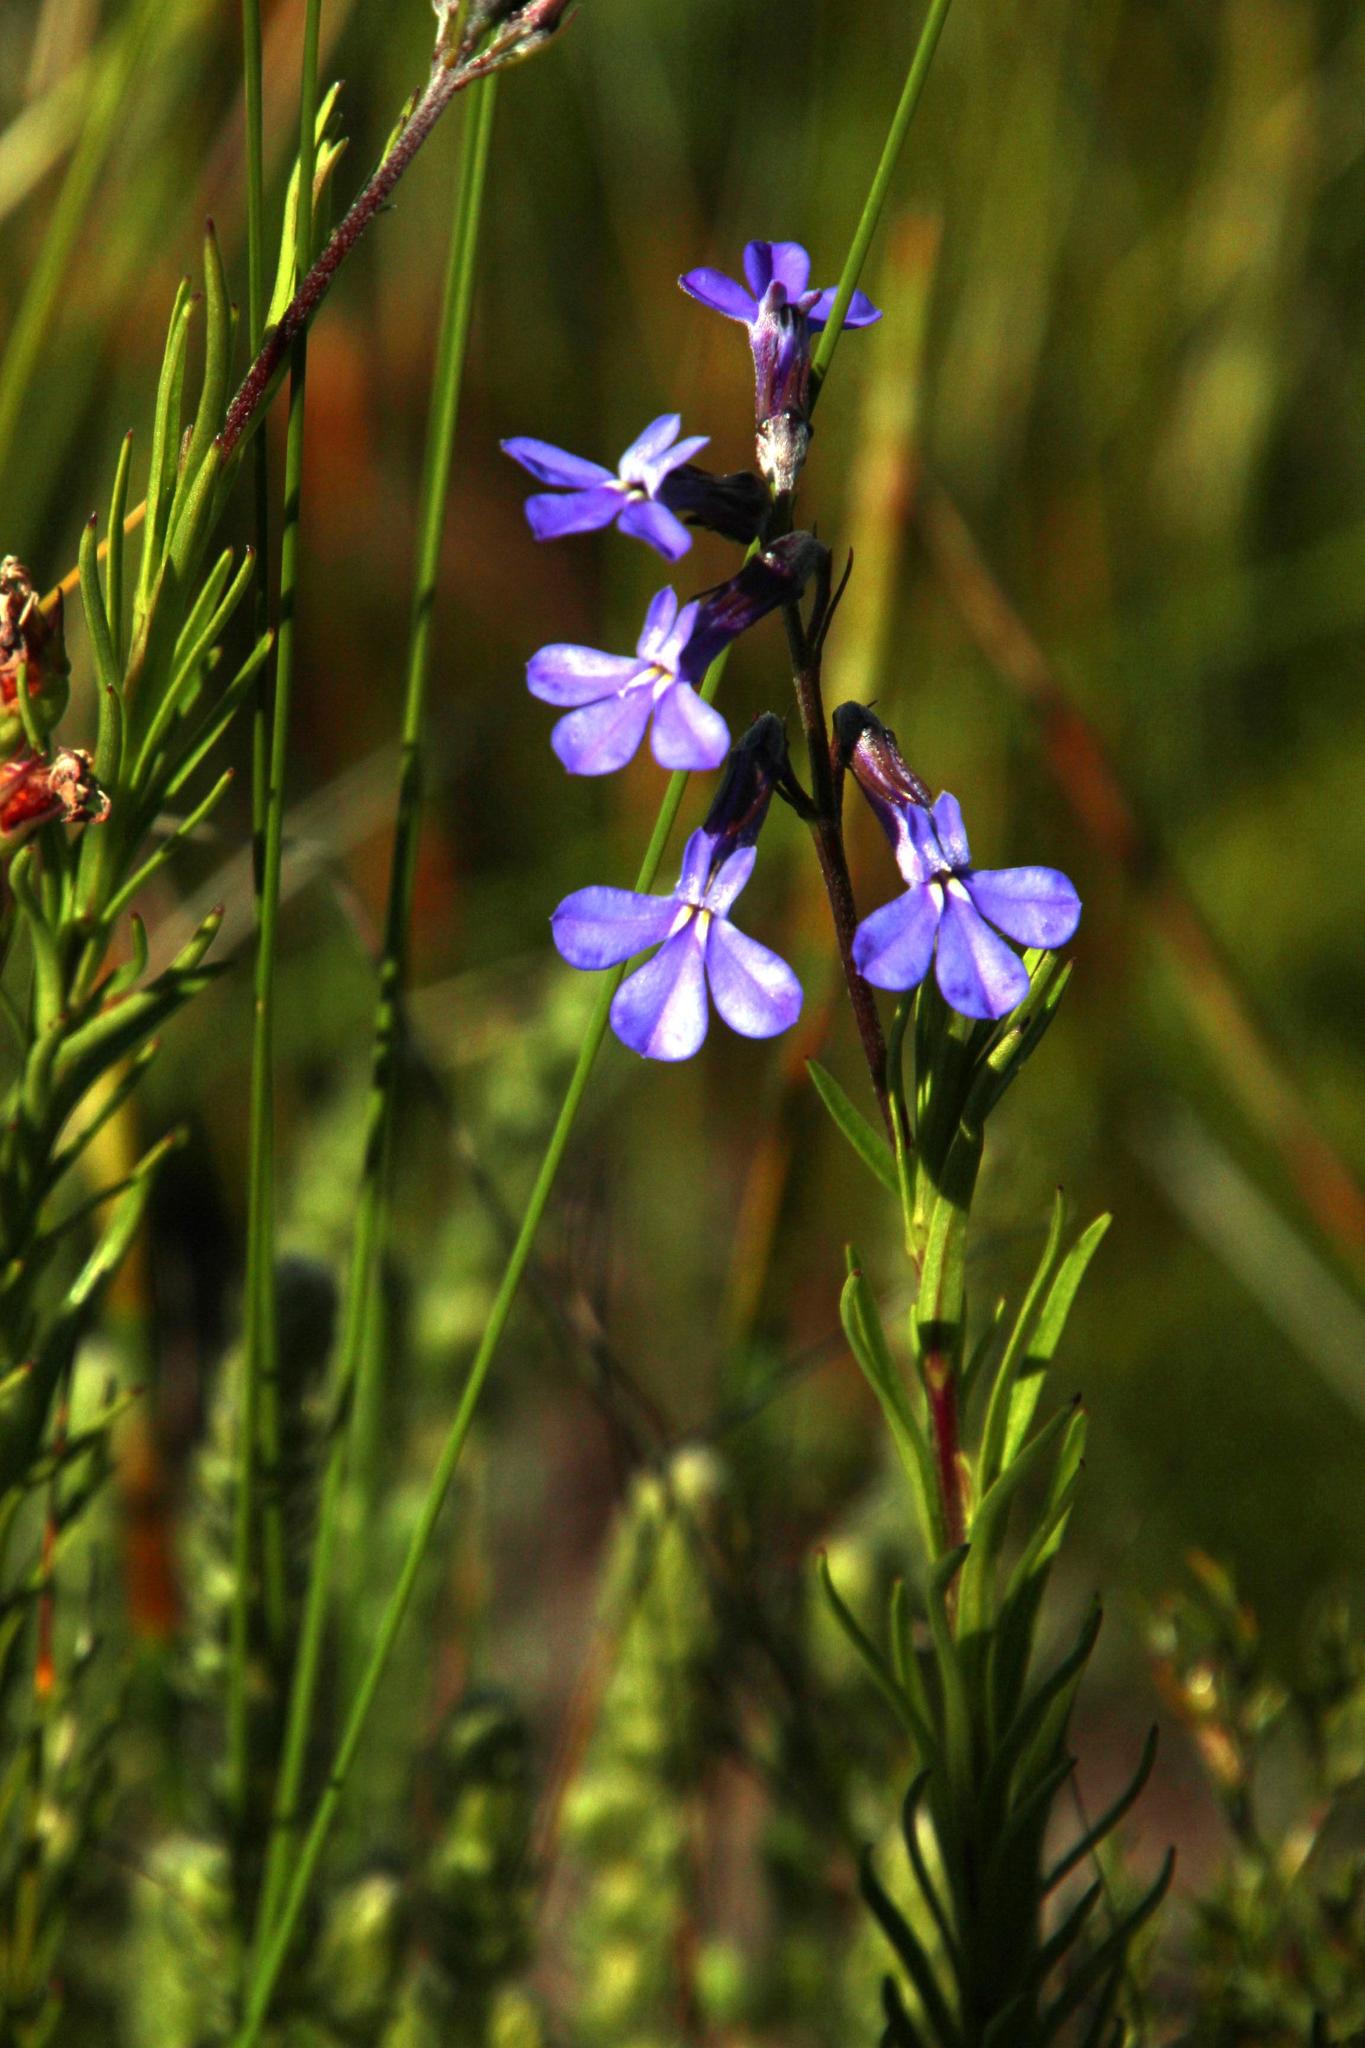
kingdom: Plantae
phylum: Tracheophyta
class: Magnoliopsida
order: Asterales
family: Campanulaceae
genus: Lobelia
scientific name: Lobelia pinifolia
